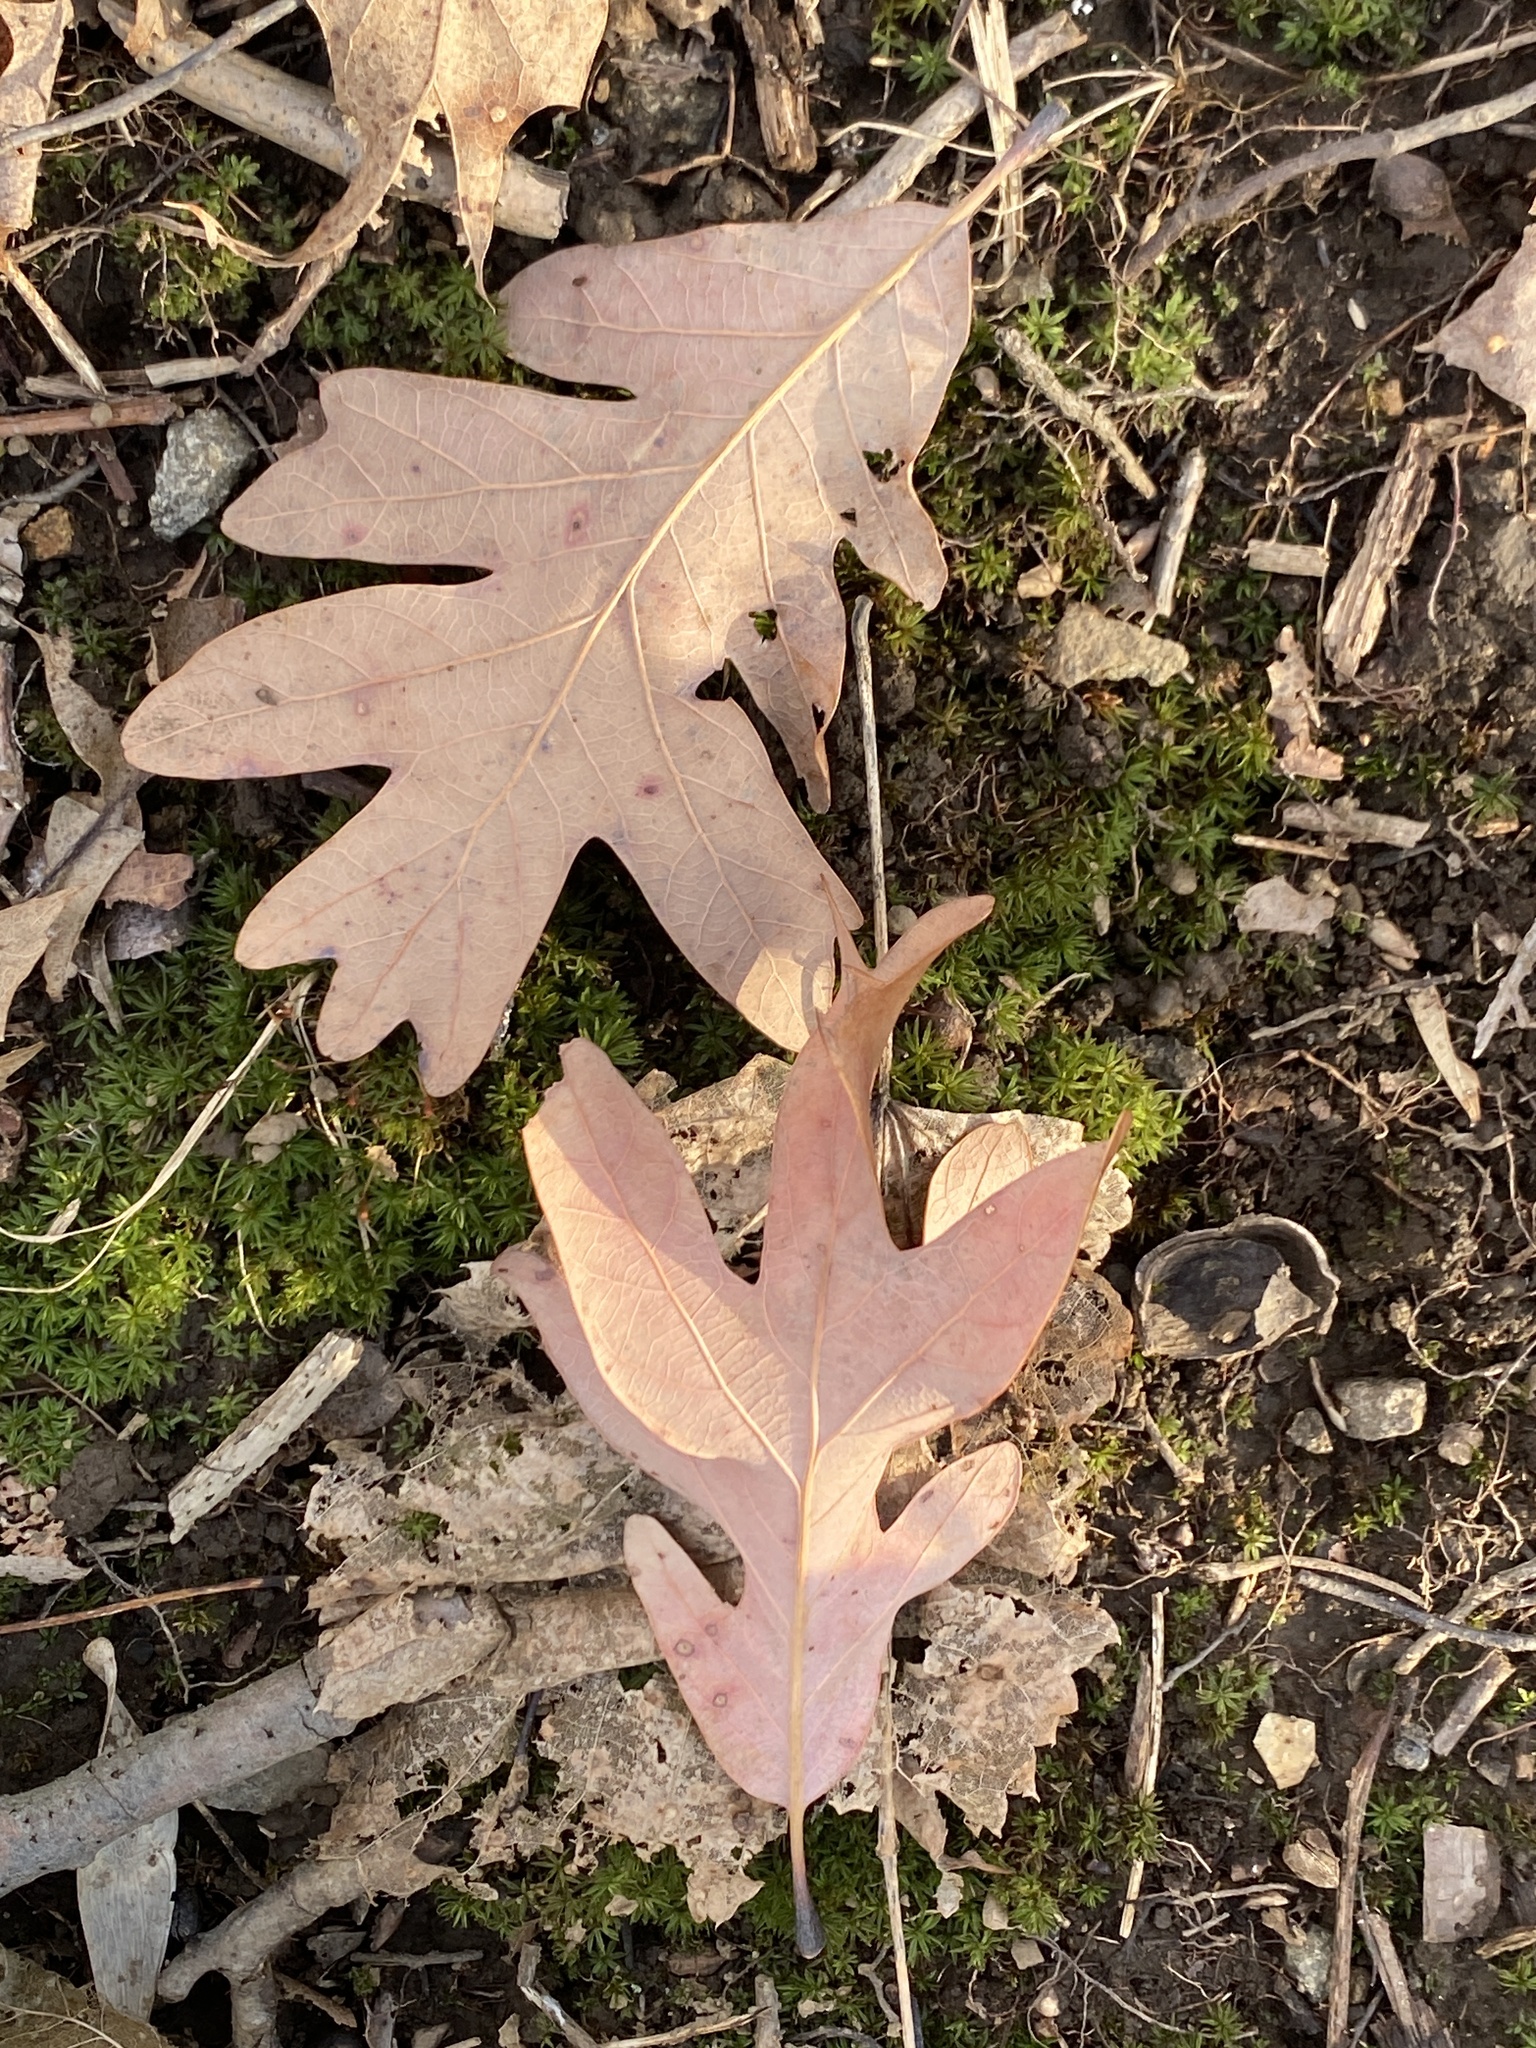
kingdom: Plantae
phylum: Tracheophyta
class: Magnoliopsida
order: Fagales
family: Fagaceae
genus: Quercus
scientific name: Quercus alba
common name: White oak
